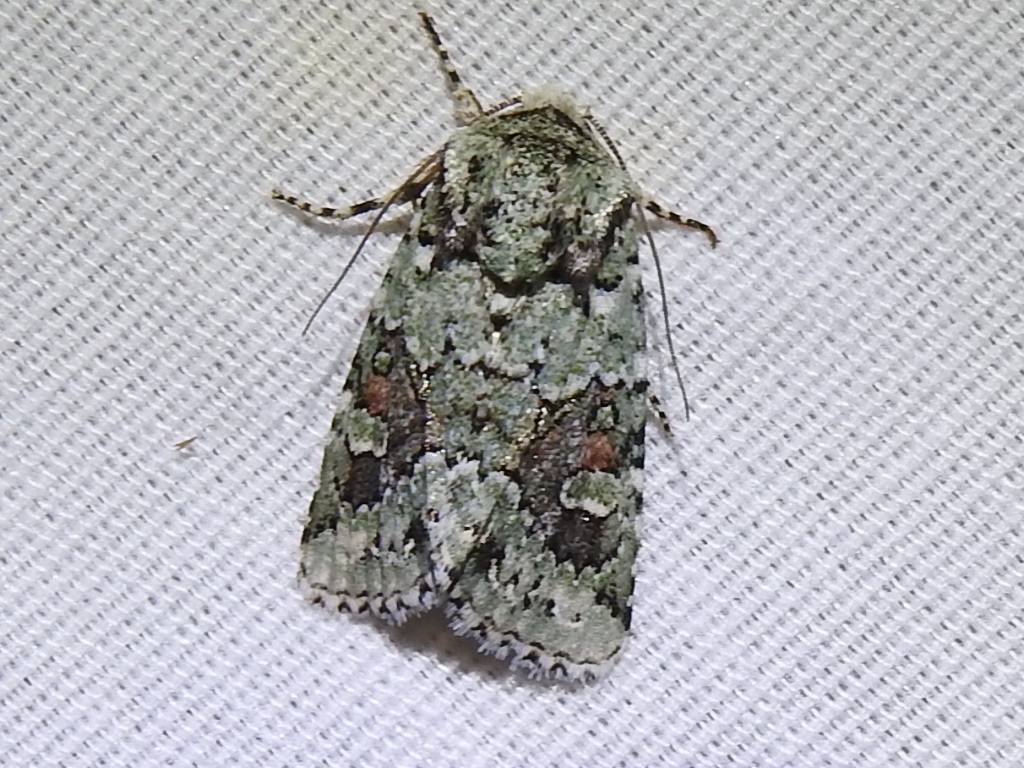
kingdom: Animalia
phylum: Arthropoda
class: Insecta
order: Lepidoptera
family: Noctuidae
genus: Lacinipolia
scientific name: Lacinipolia laudabilis
